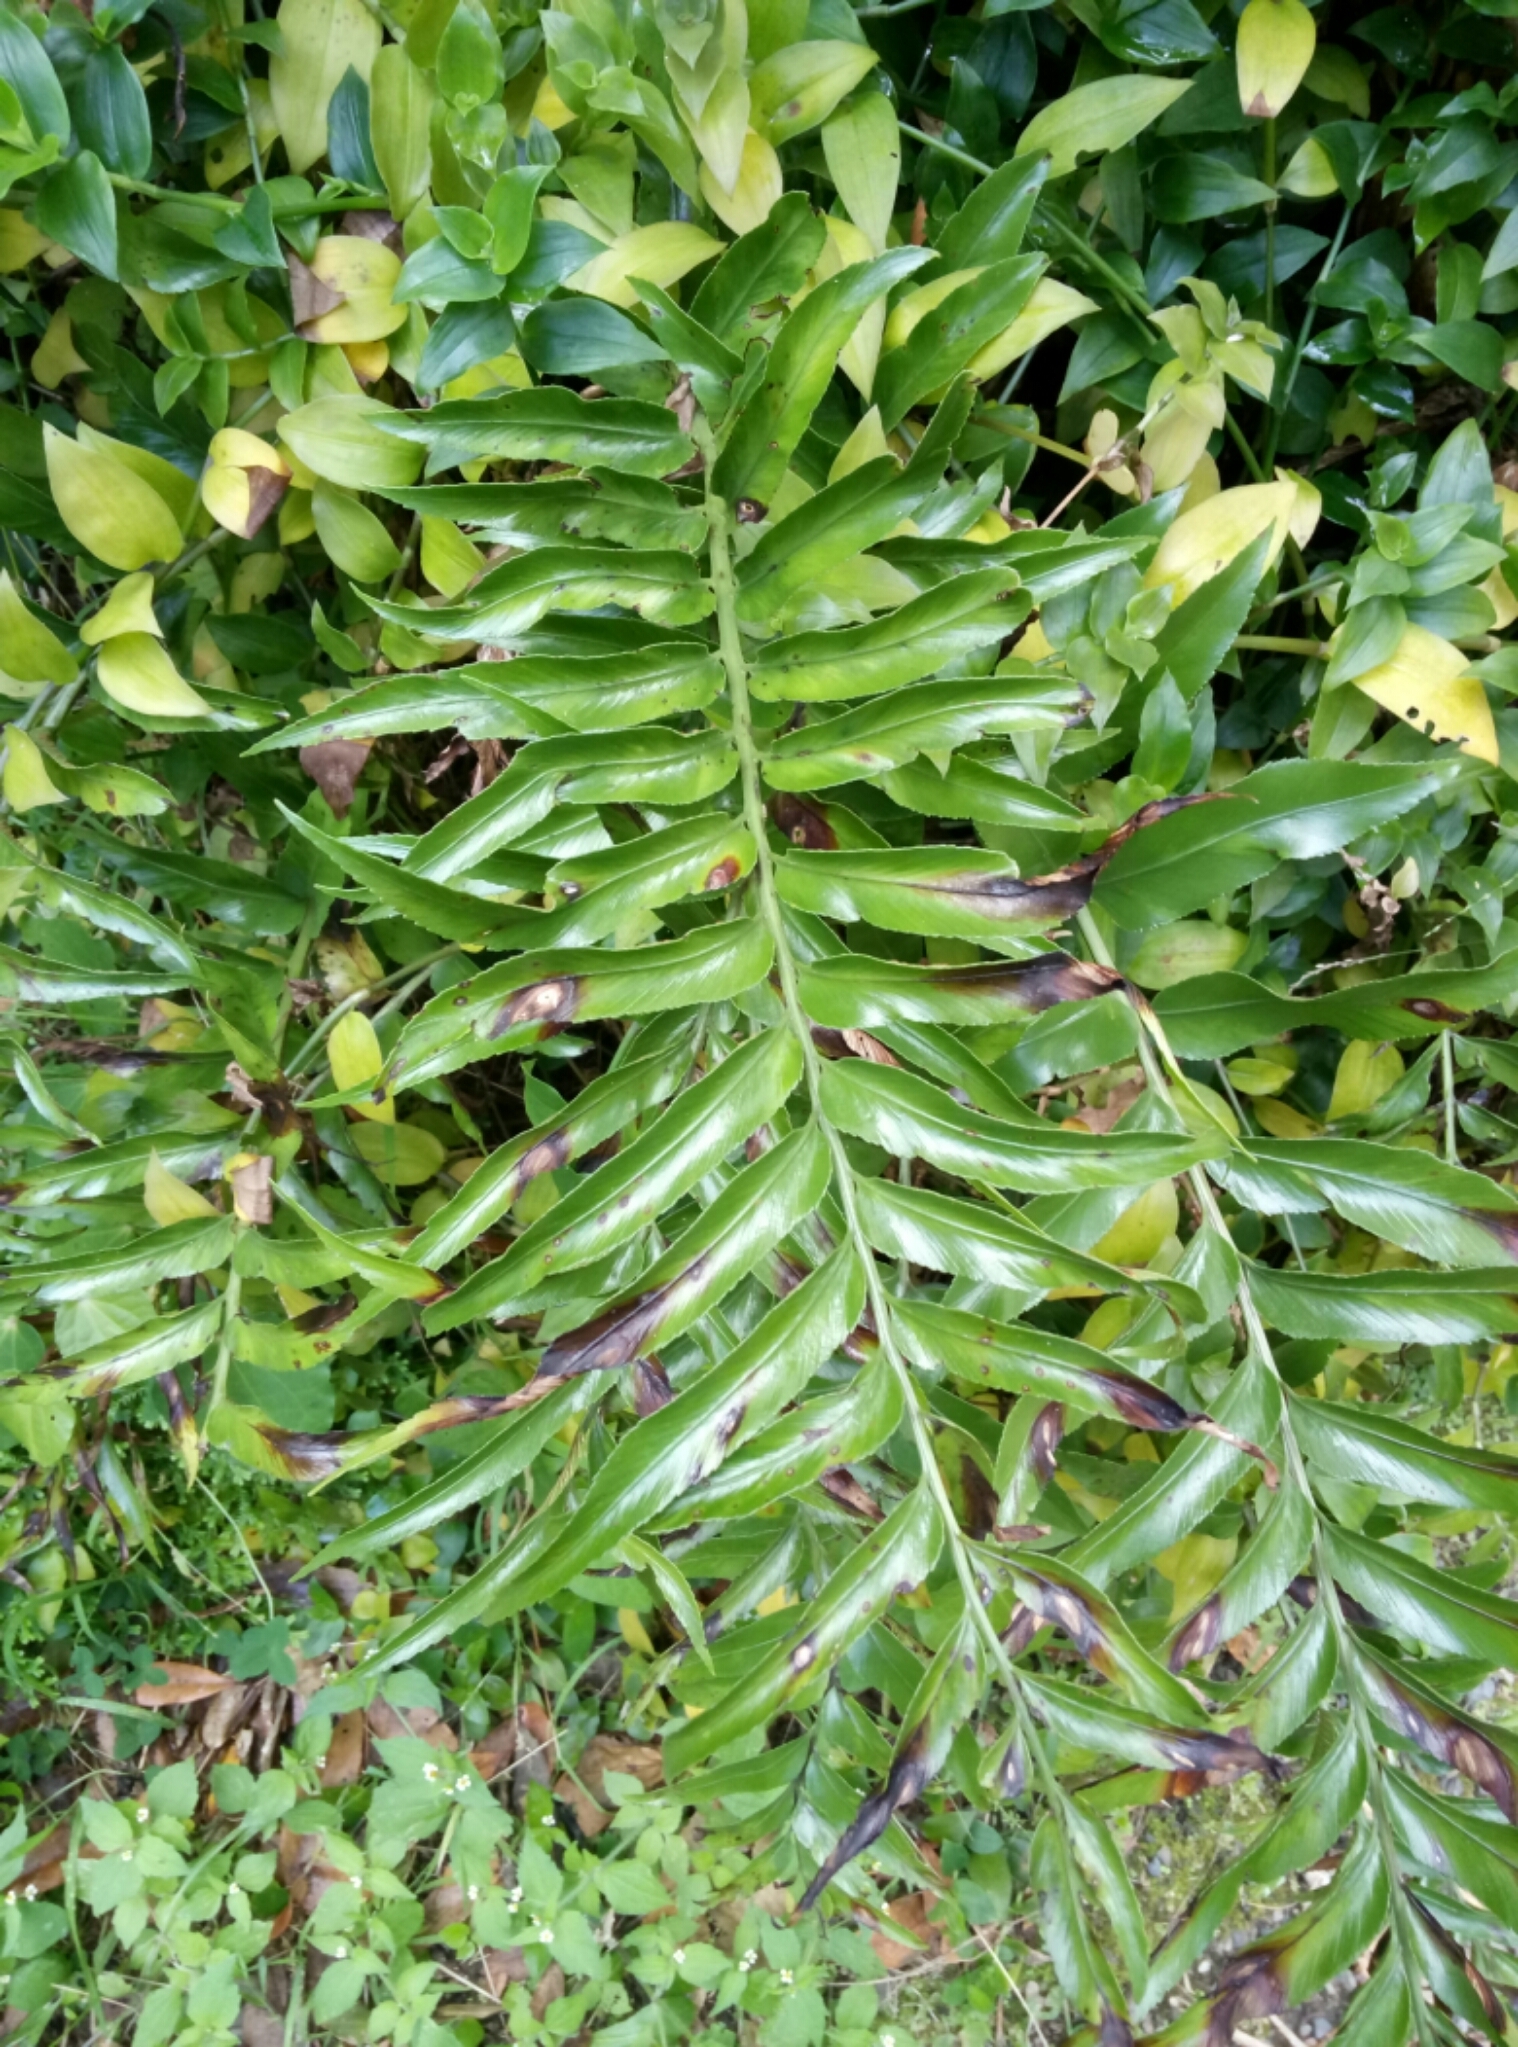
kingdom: Plantae
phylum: Tracheophyta
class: Polypodiopsida
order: Polypodiales
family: Aspleniaceae
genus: Asplenium
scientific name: Asplenium oblongifolium
